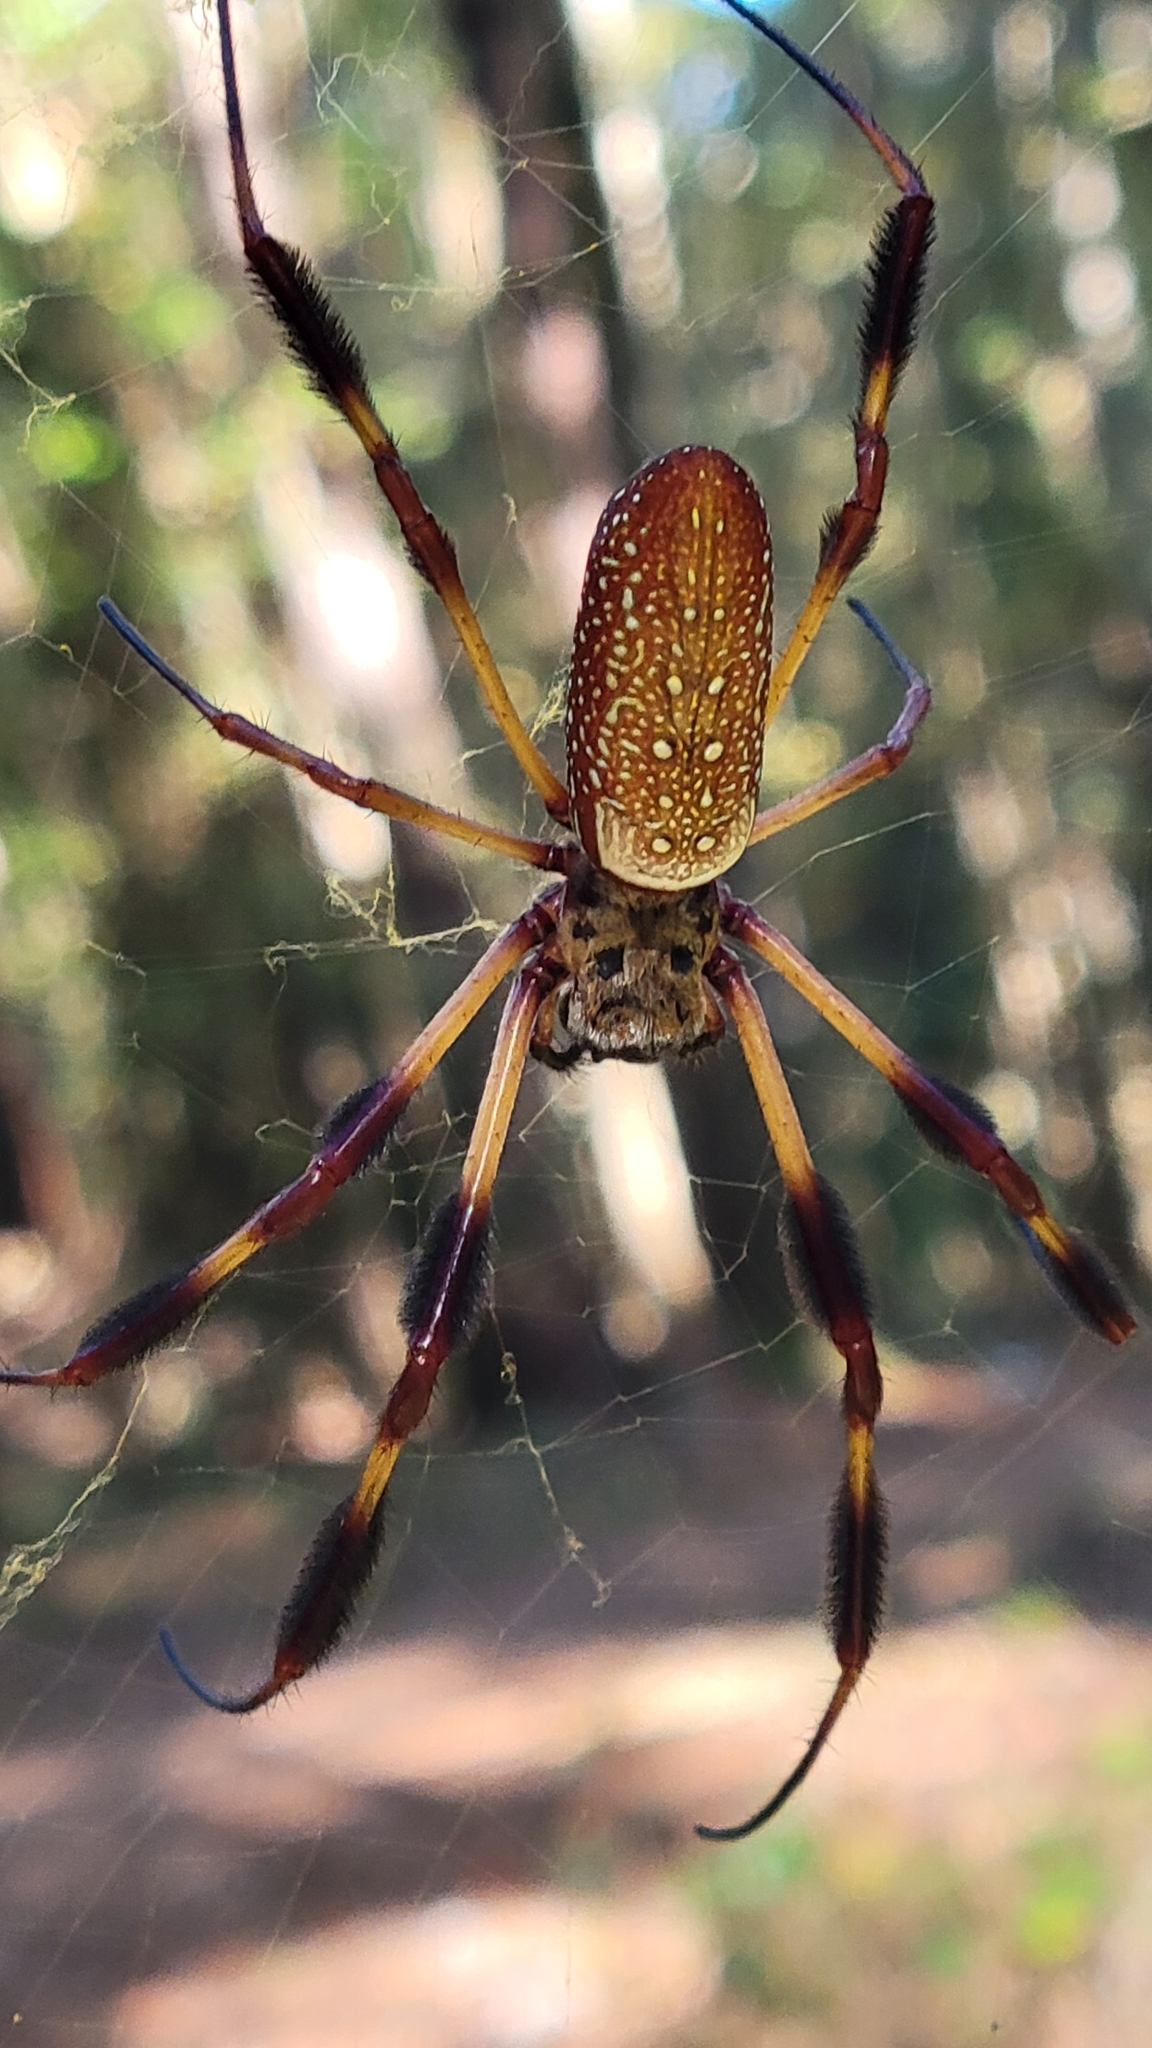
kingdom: Animalia
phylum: Arthropoda
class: Arachnida
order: Araneae
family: Araneidae
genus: Trichonephila
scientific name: Trichonephila clavipes
